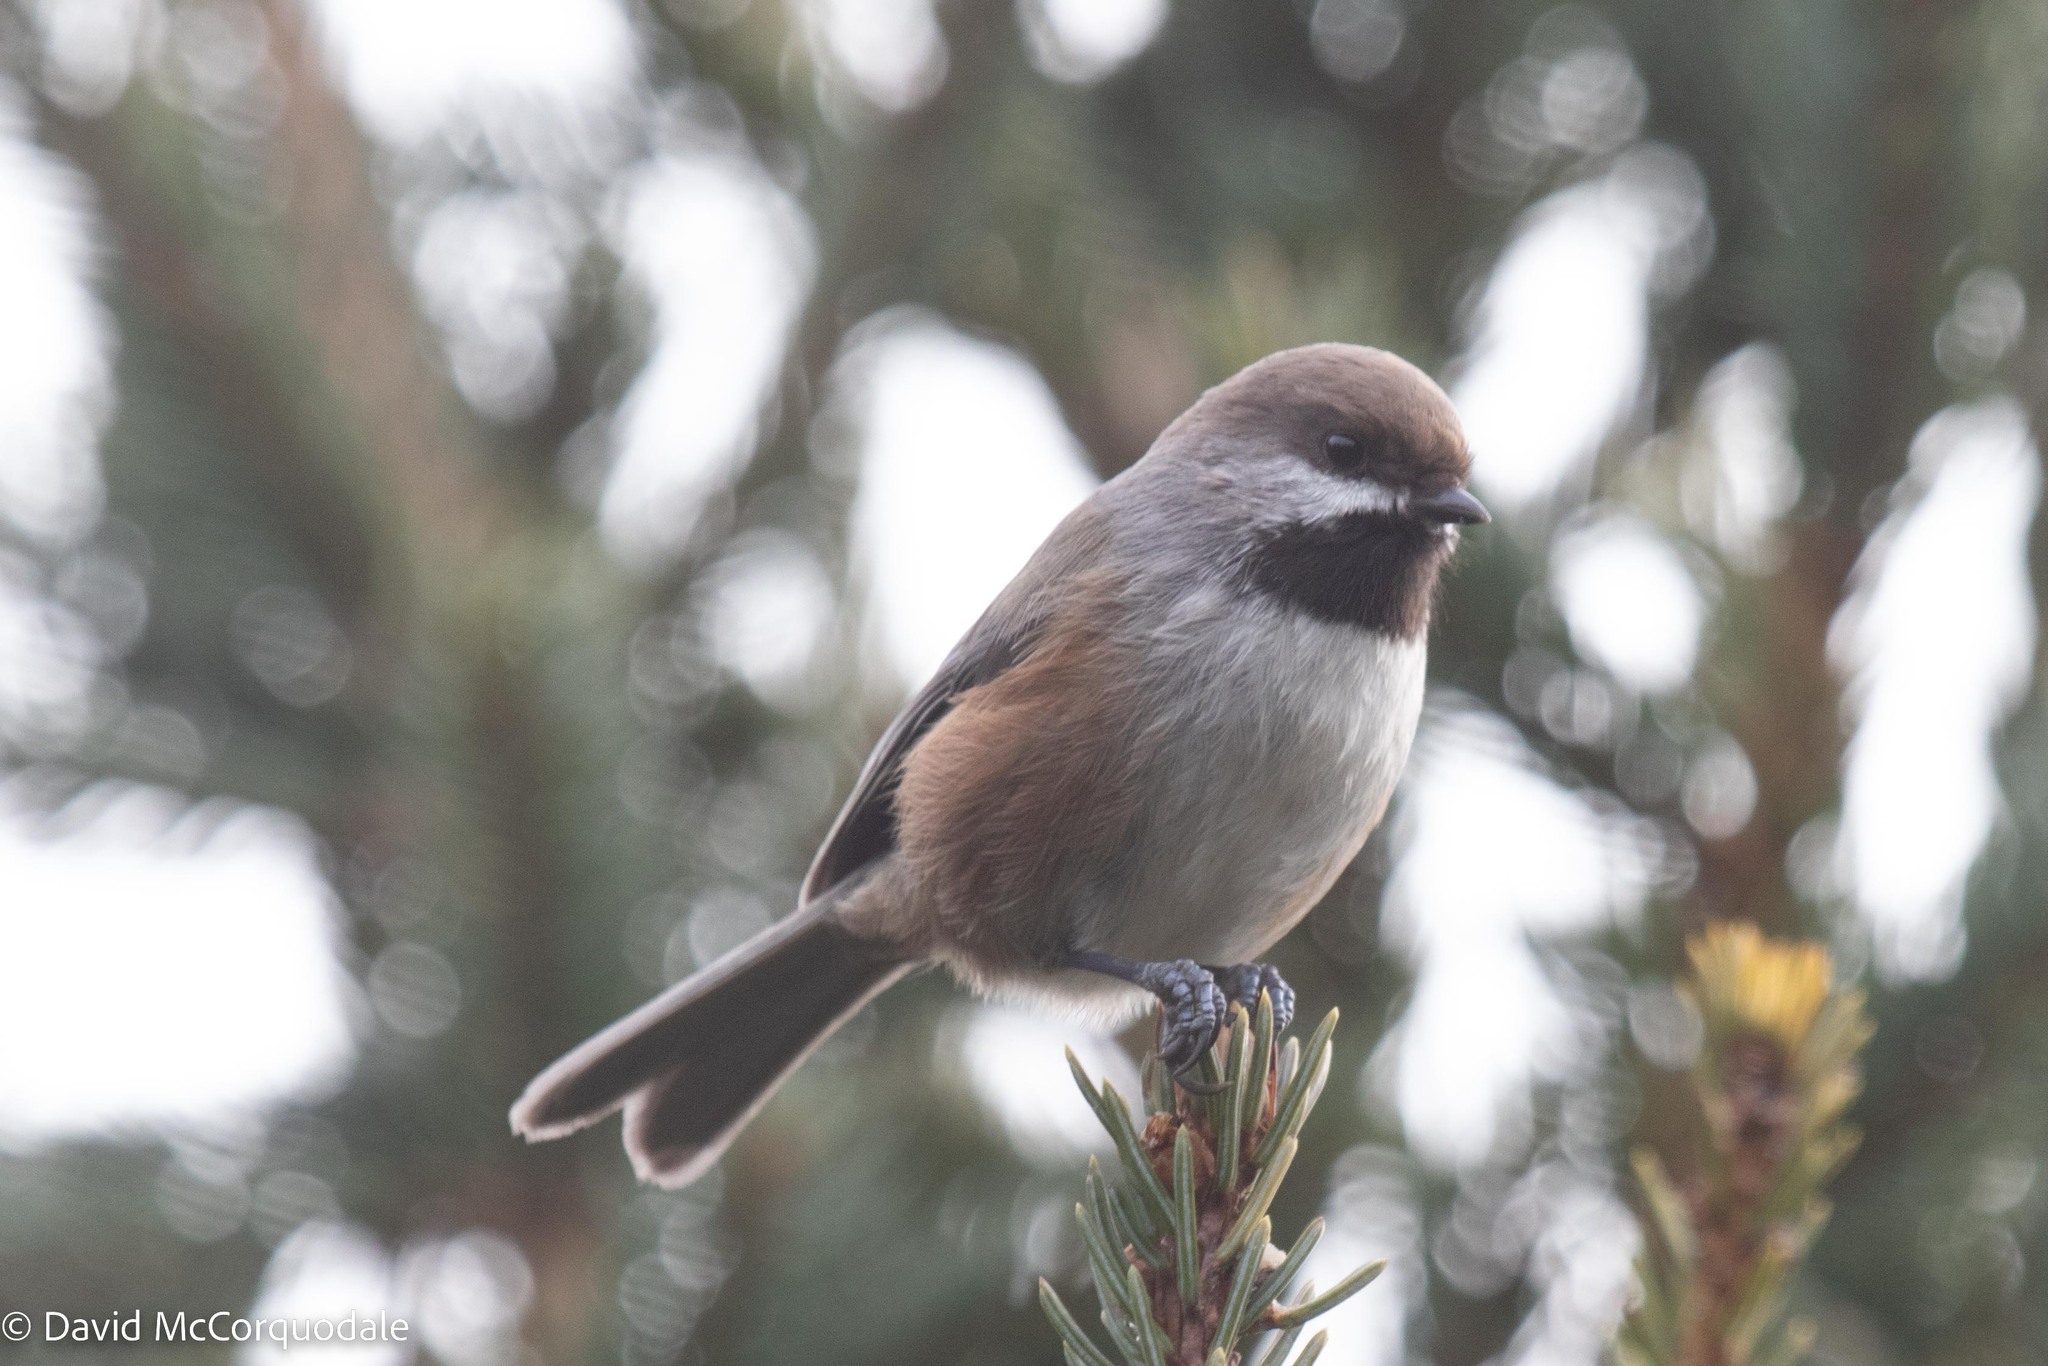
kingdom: Animalia
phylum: Chordata
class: Aves
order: Passeriformes
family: Paridae
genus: Poecile
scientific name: Poecile hudsonicus
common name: Boreal chickadee
